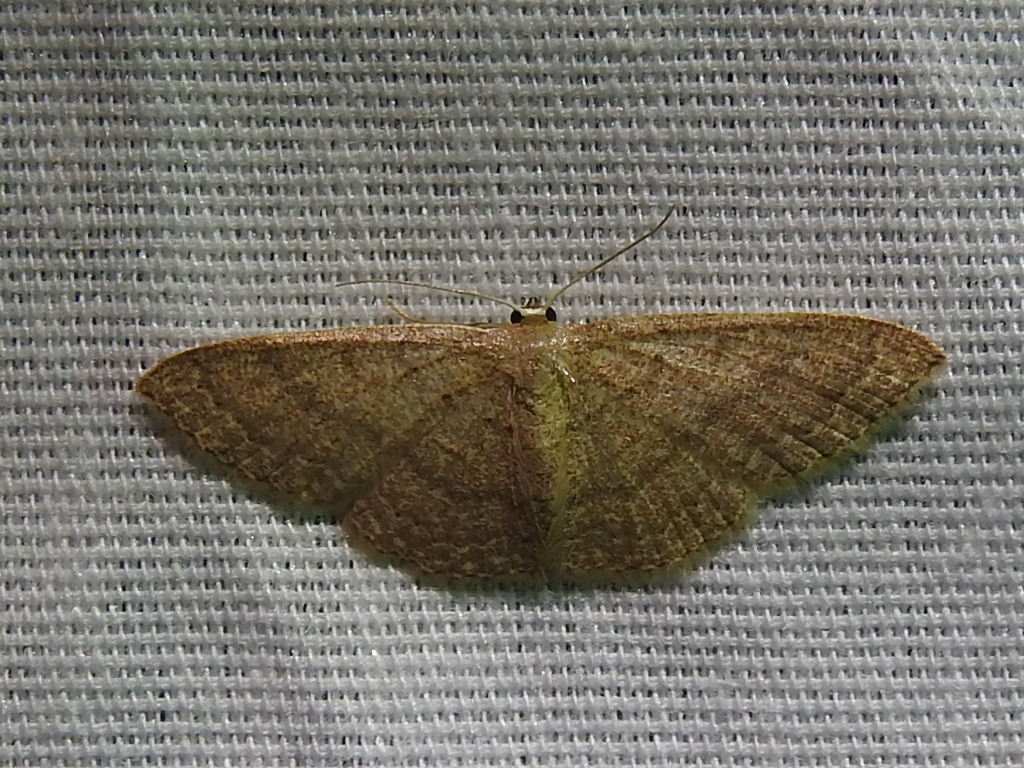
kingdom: Animalia
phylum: Arthropoda
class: Insecta
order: Lepidoptera
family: Geometridae
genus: Pleuroprucha
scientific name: Pleuroprucha insulsaria
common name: Common tan wave
